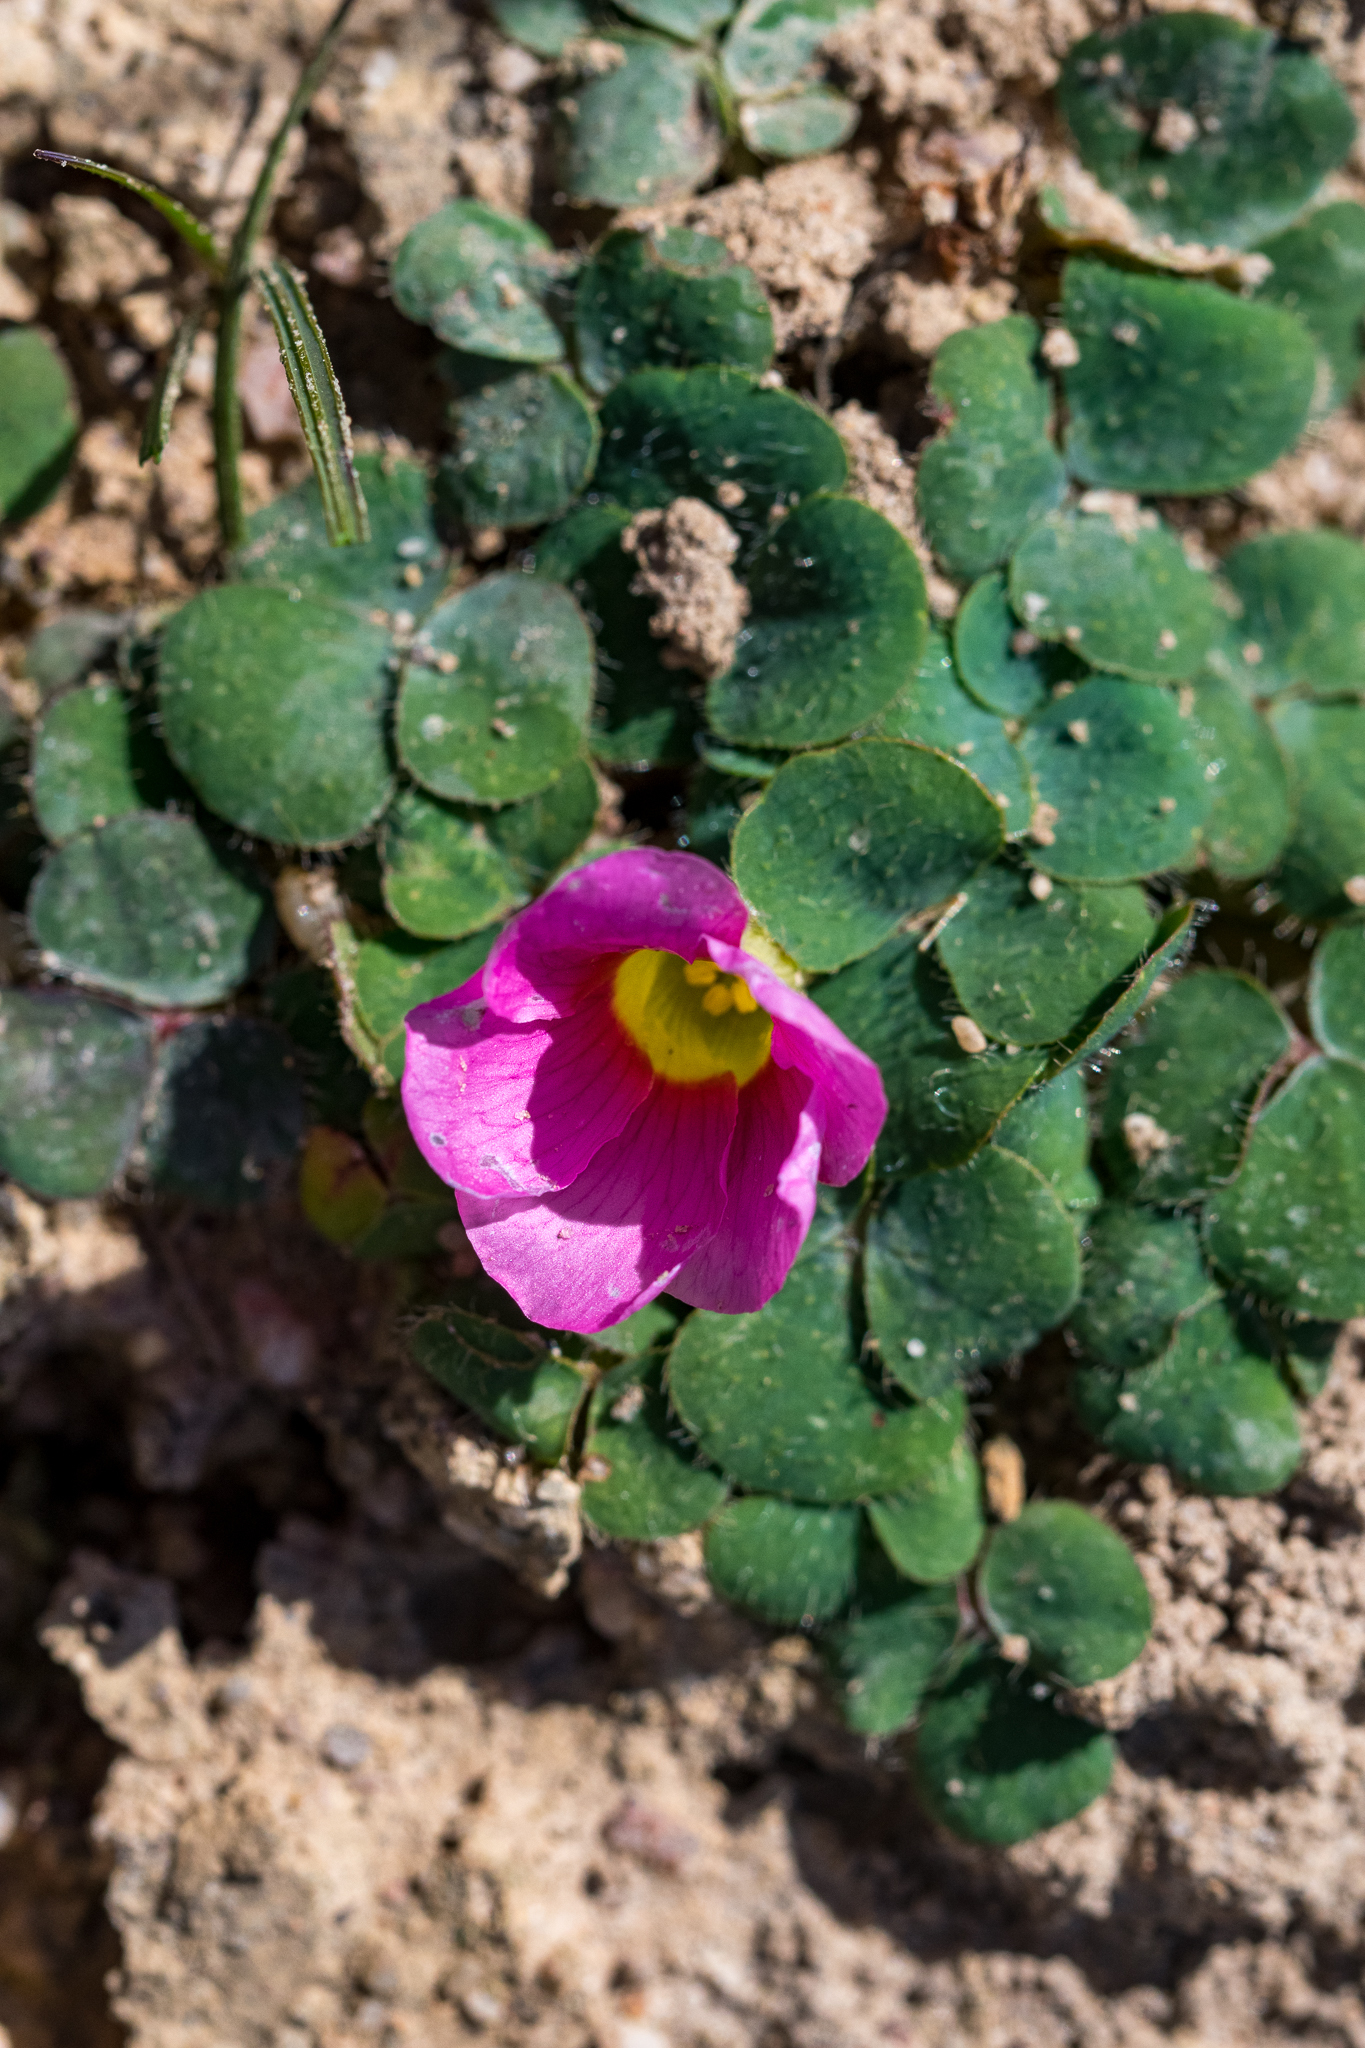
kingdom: Plantae
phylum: Tracheophyta
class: Magnoliopsida
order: Oxalidales
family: Oxalidaceae
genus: Oxalis
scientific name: Oxalis purpurea
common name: Purple woodsorrel
